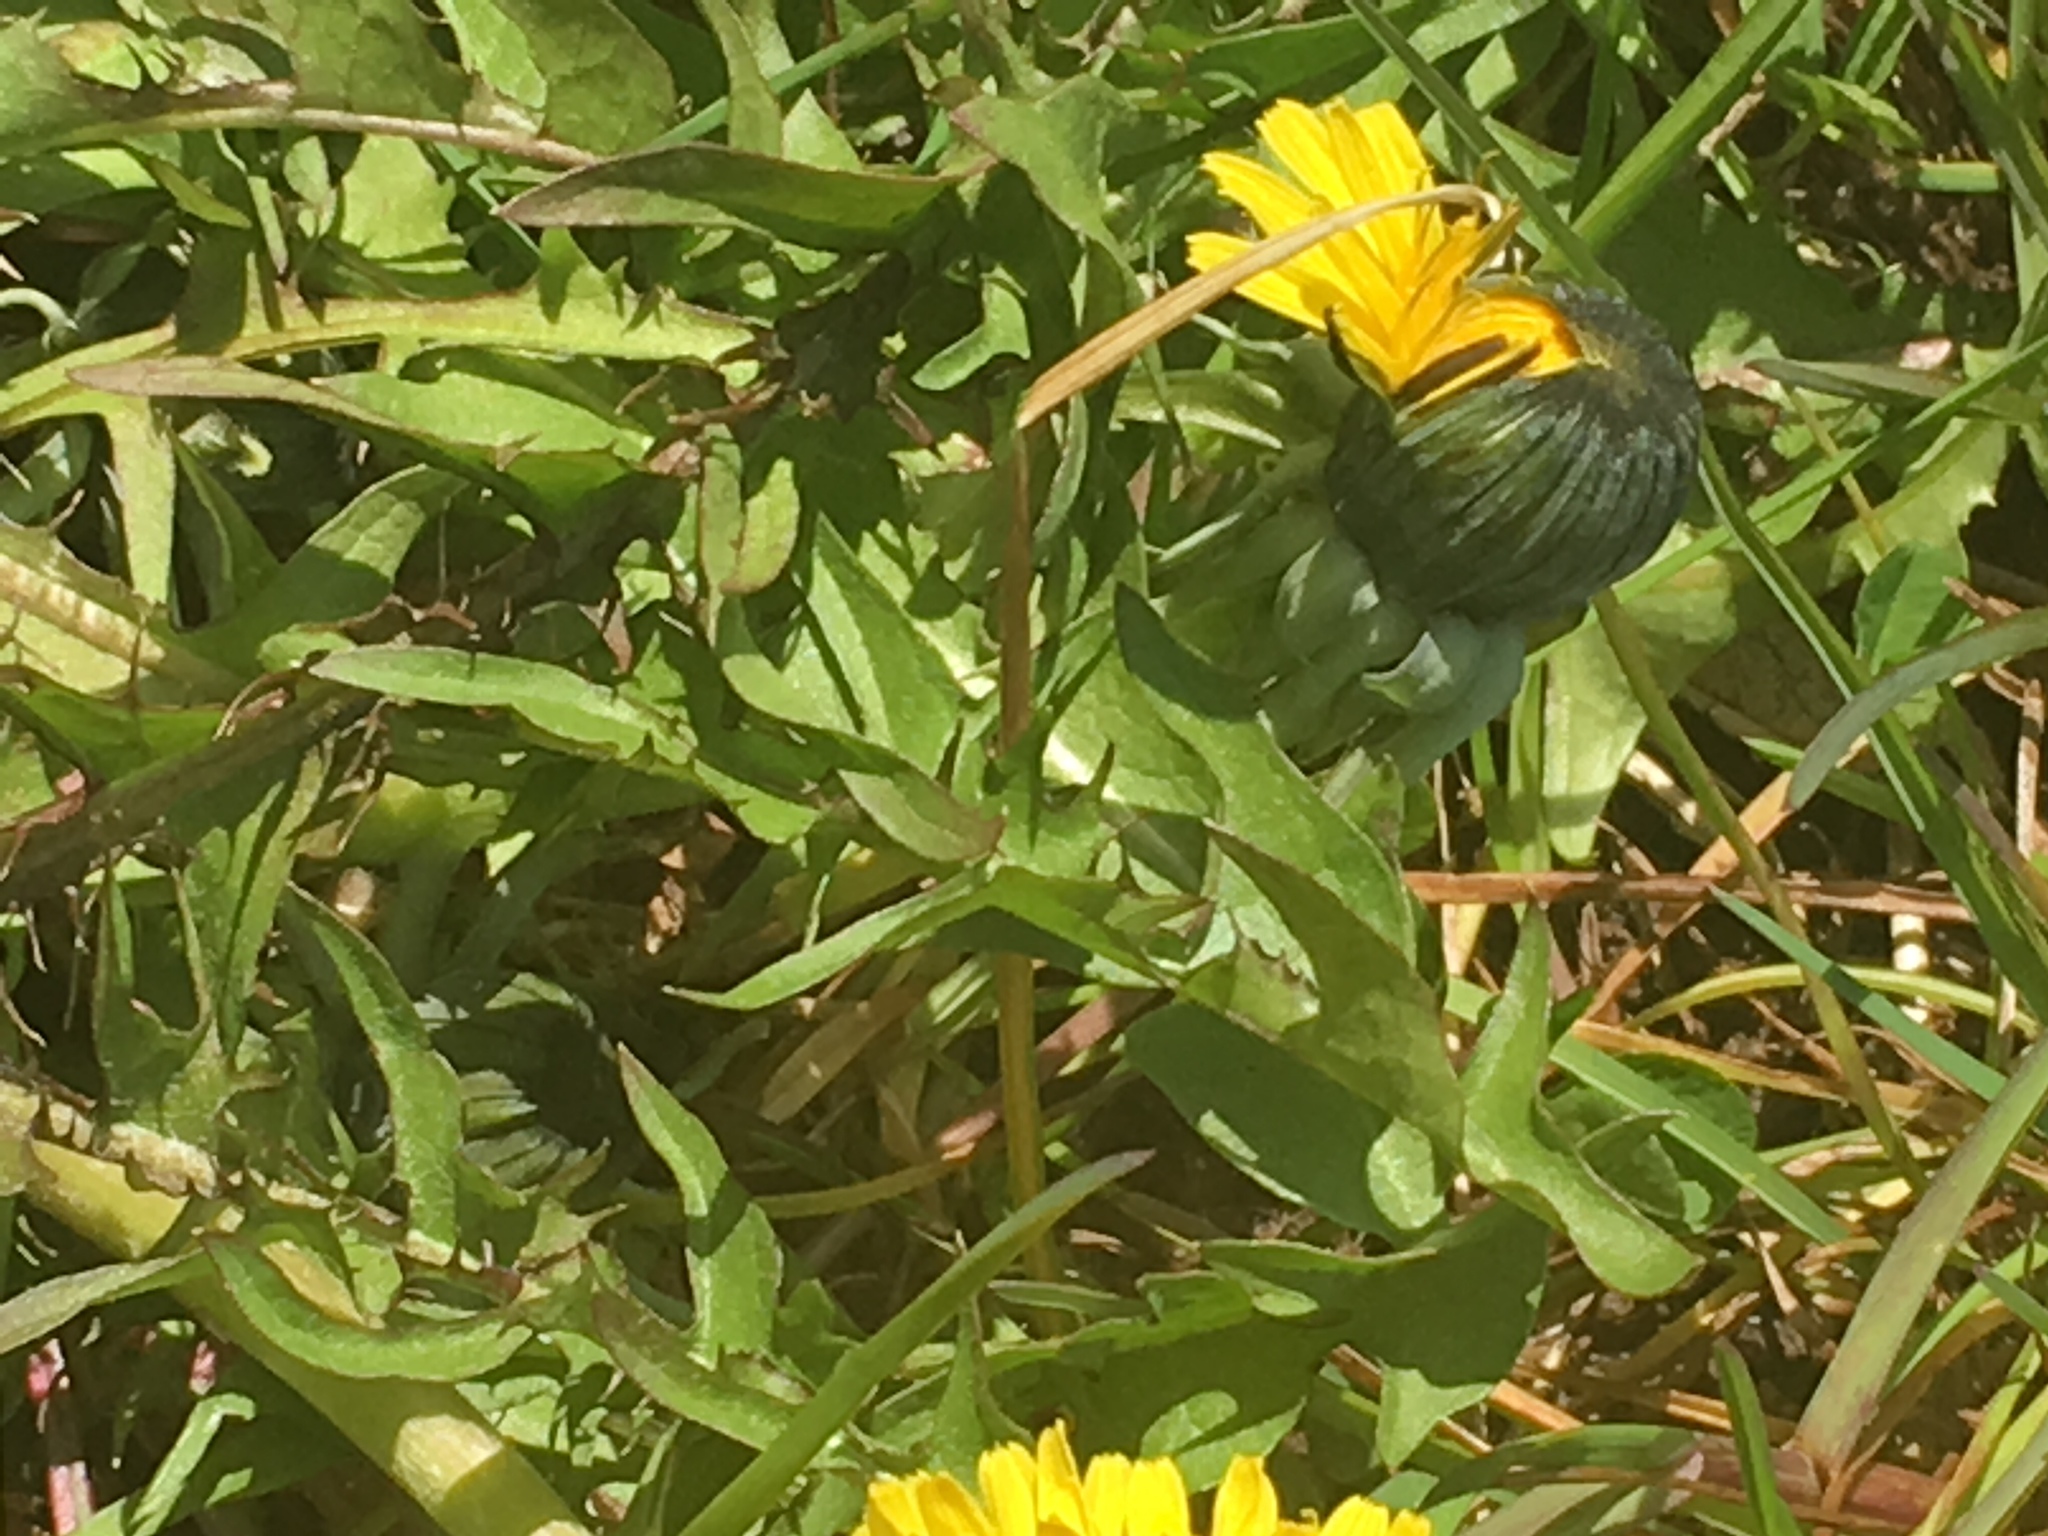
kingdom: Plantae
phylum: Tracheophyta
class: Magnoliopsida
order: Asterales
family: Asteraceae
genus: Taraxacum
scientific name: Taraxacum officinale
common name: Common dandelion
